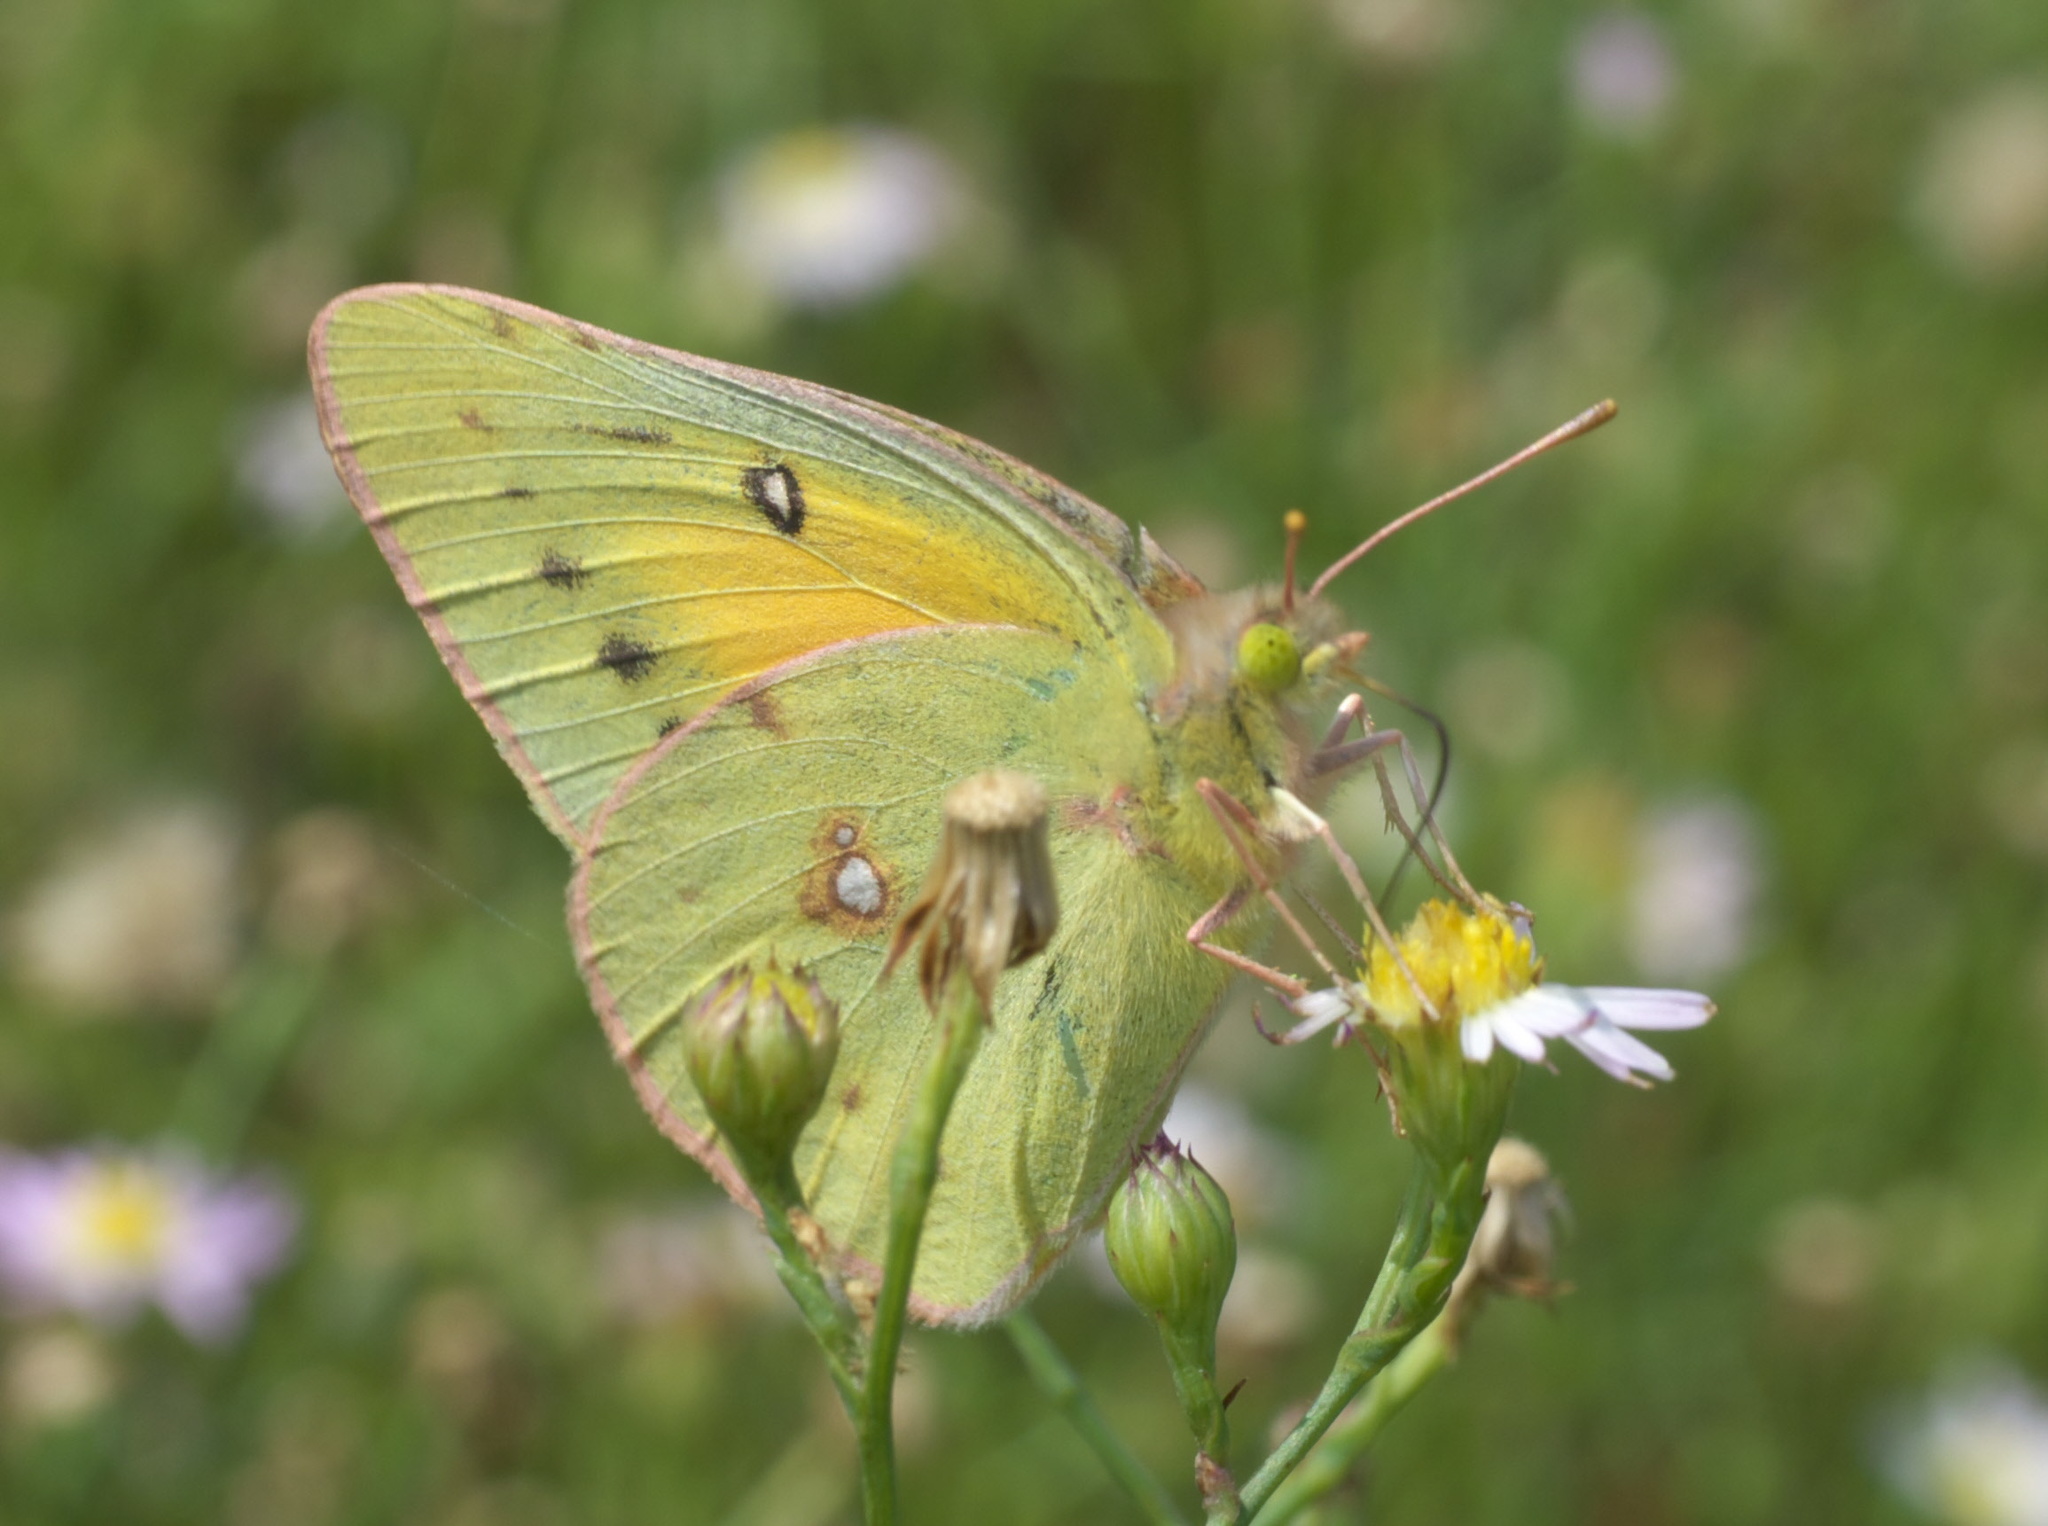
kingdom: Animalia
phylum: Arthropoda
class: Insecta
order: Lepidoptera
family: Pieridae
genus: Colias
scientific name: Colias eurytheme
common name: Alfalfa butterfly
